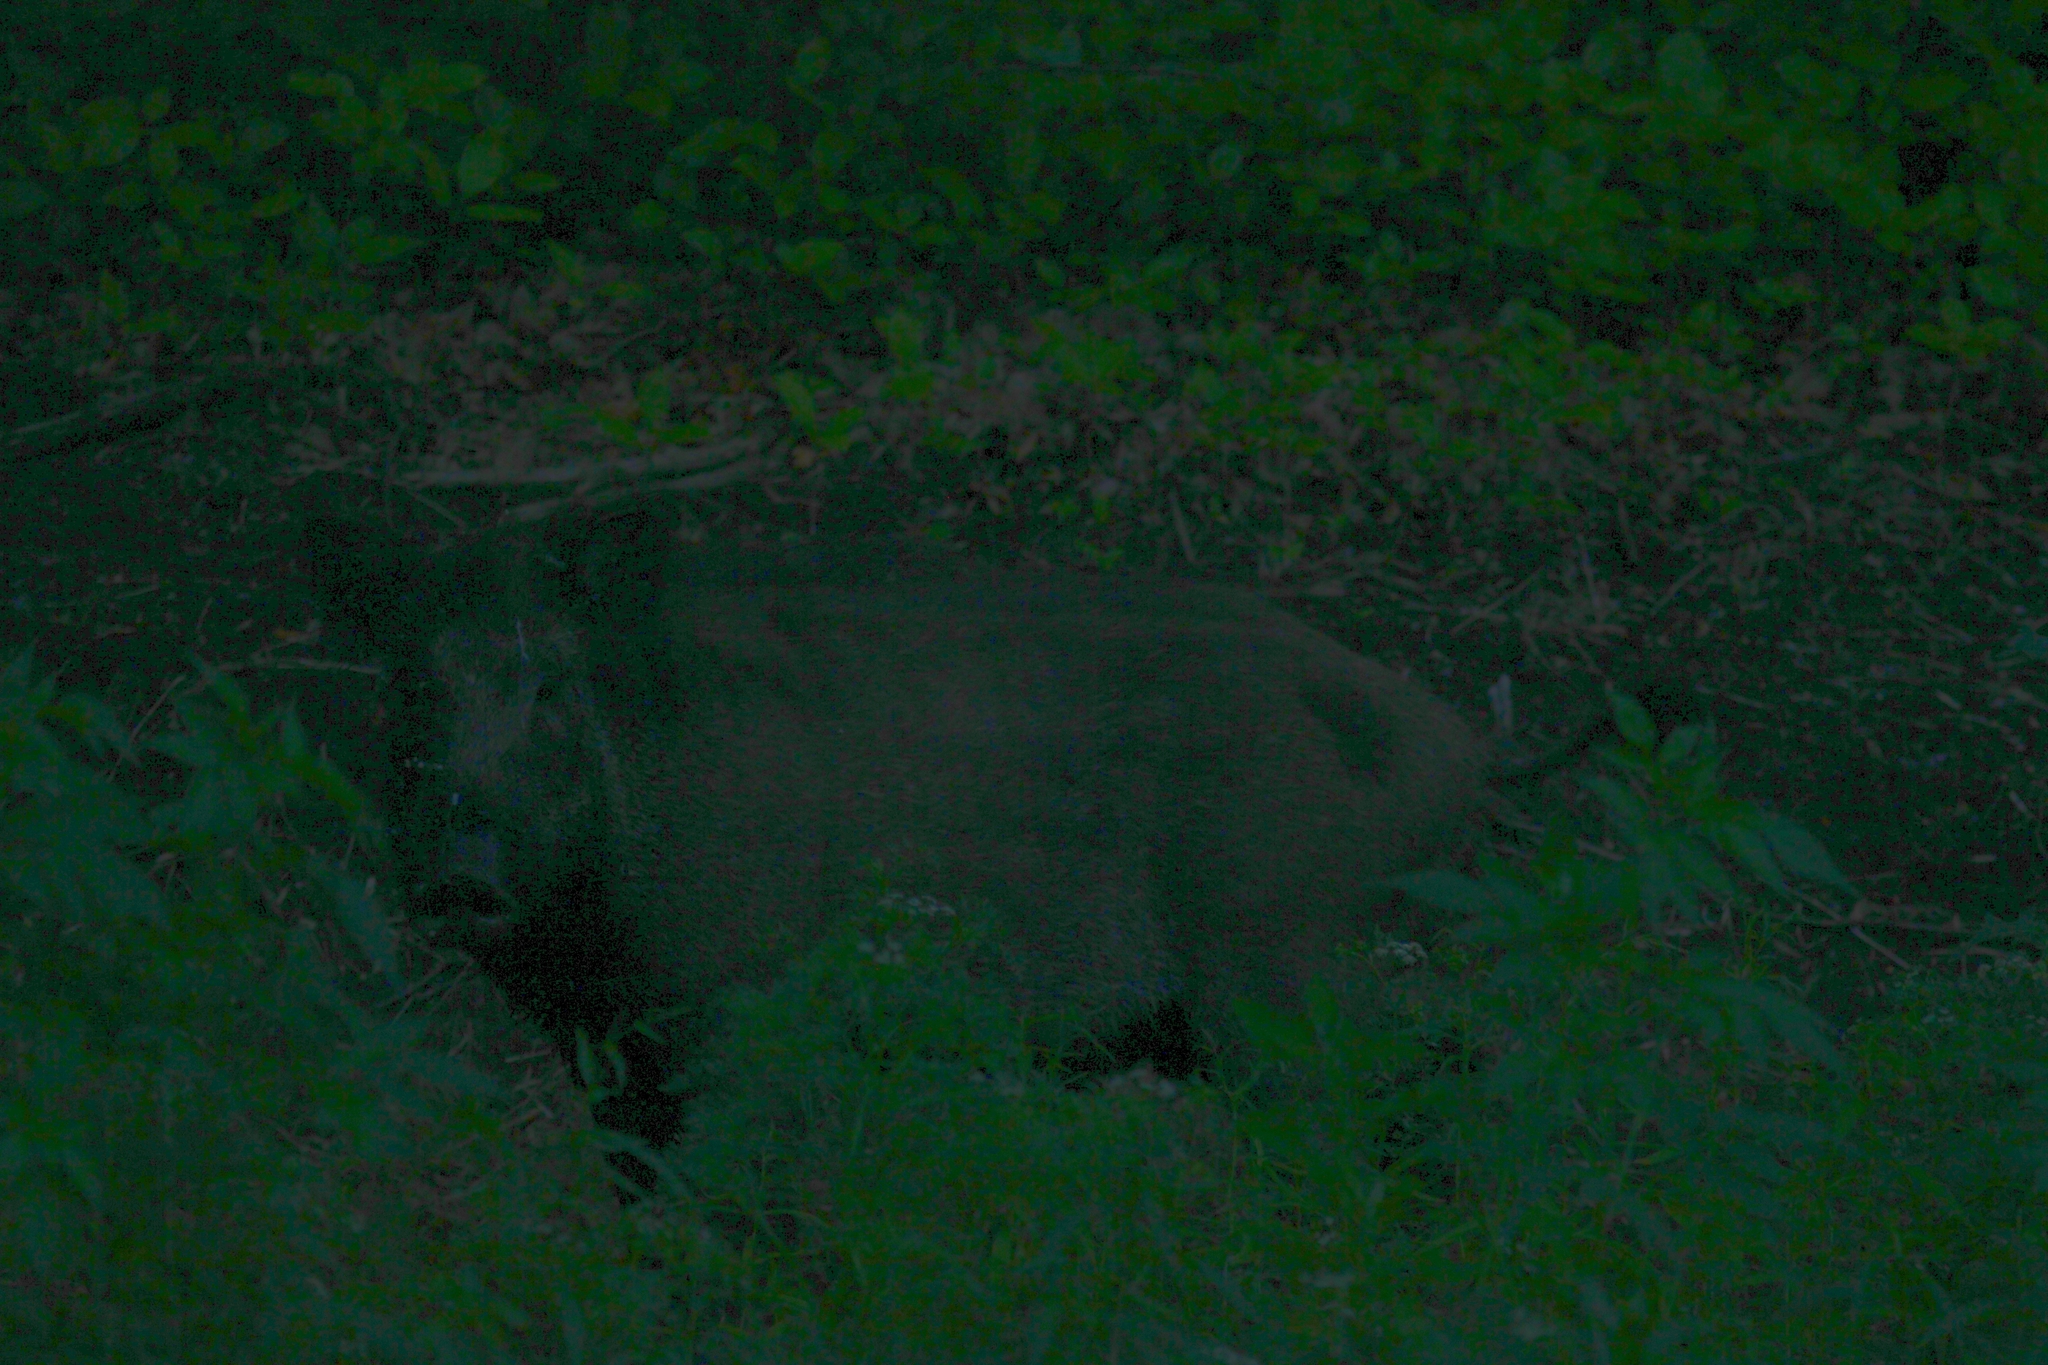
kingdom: Animalia
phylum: Chordata
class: Mammalia
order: Artiodactyla
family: Suidae
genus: Sus
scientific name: Sus scrofa
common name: Wild boar
